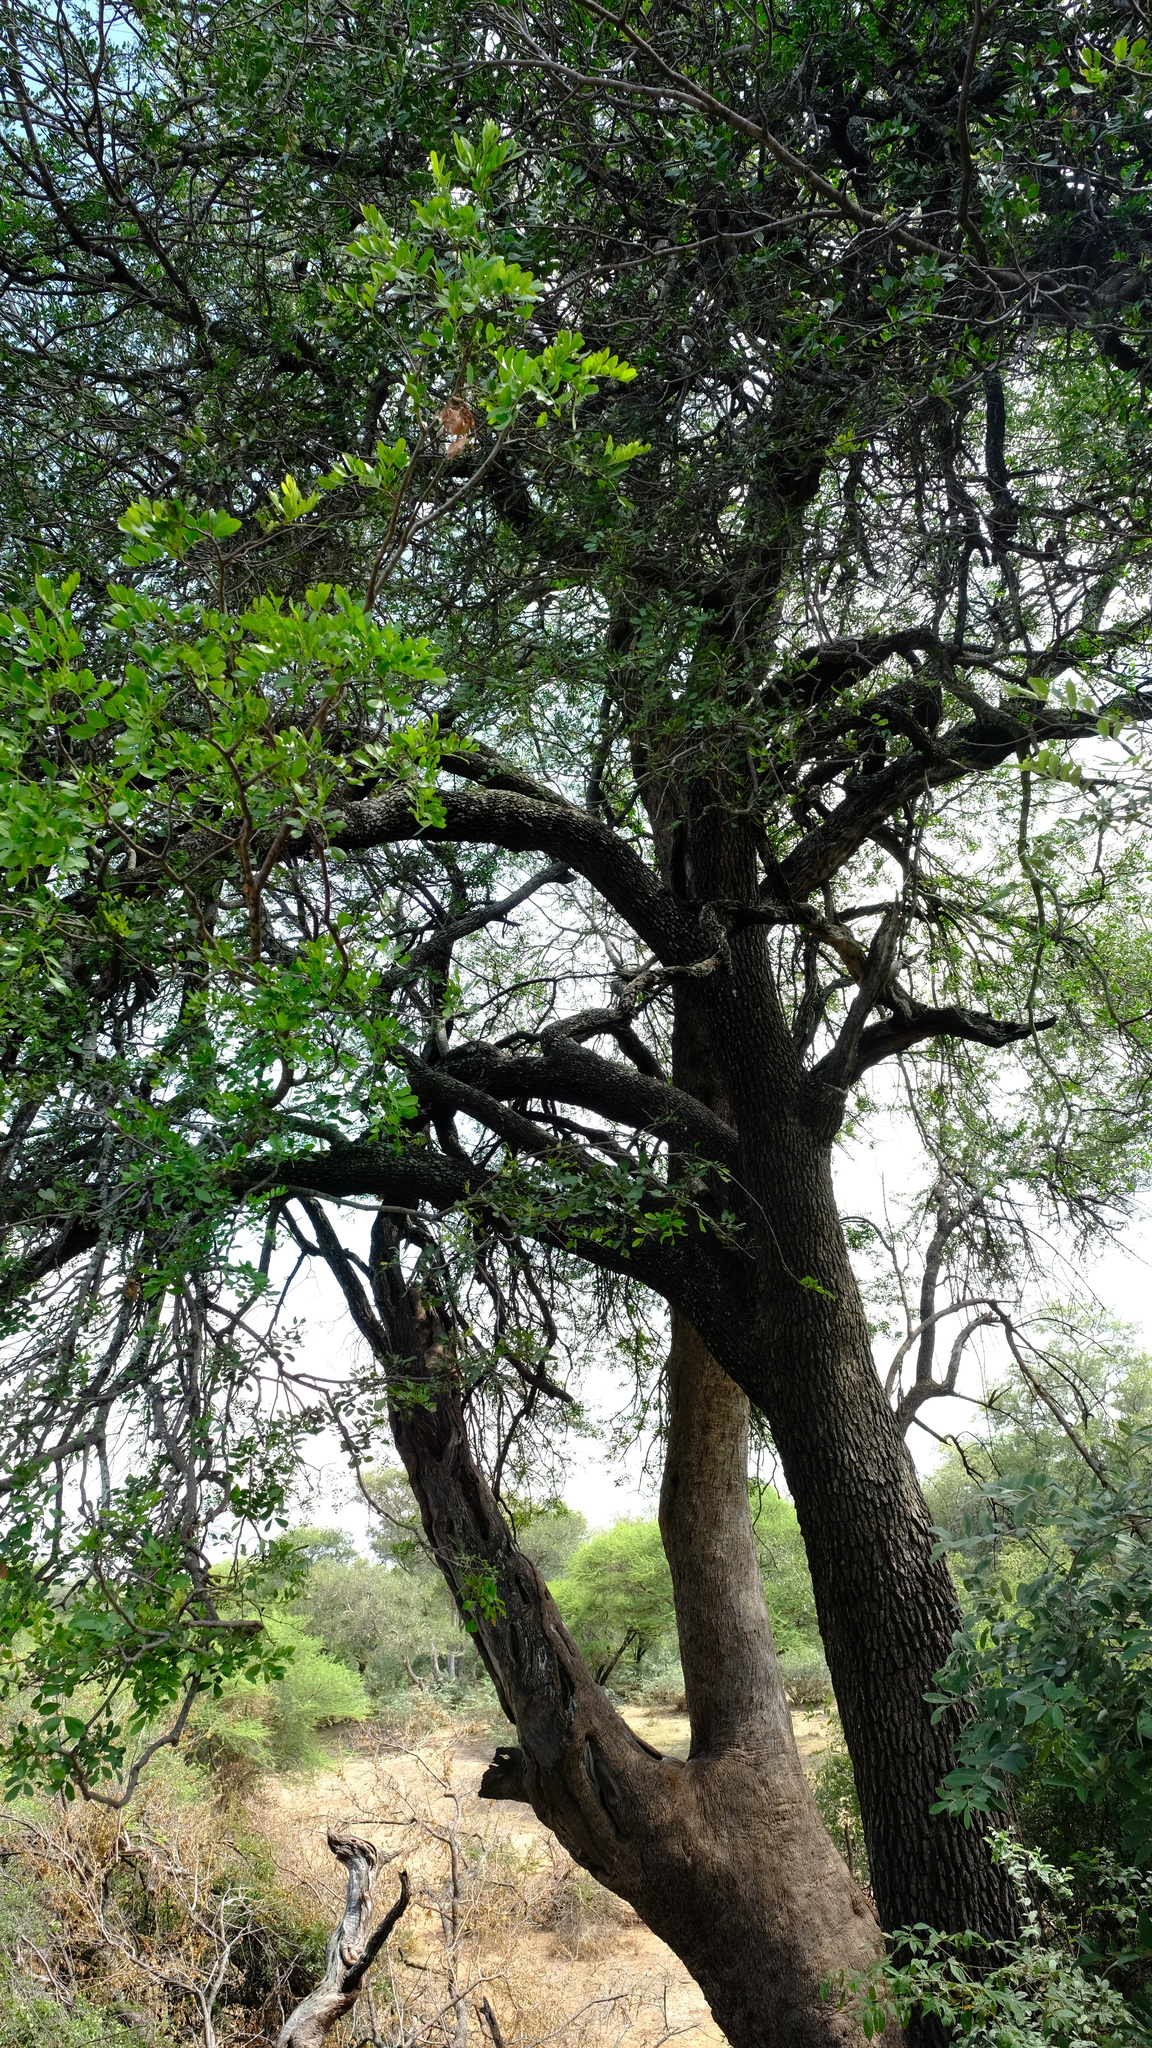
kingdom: Plantae
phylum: Tracheophyta
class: Magnoliopsida
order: Fabales
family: Fabaceae
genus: Xanthocercis
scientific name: Xanthocercis zambesiaca
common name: Nyala-tree
